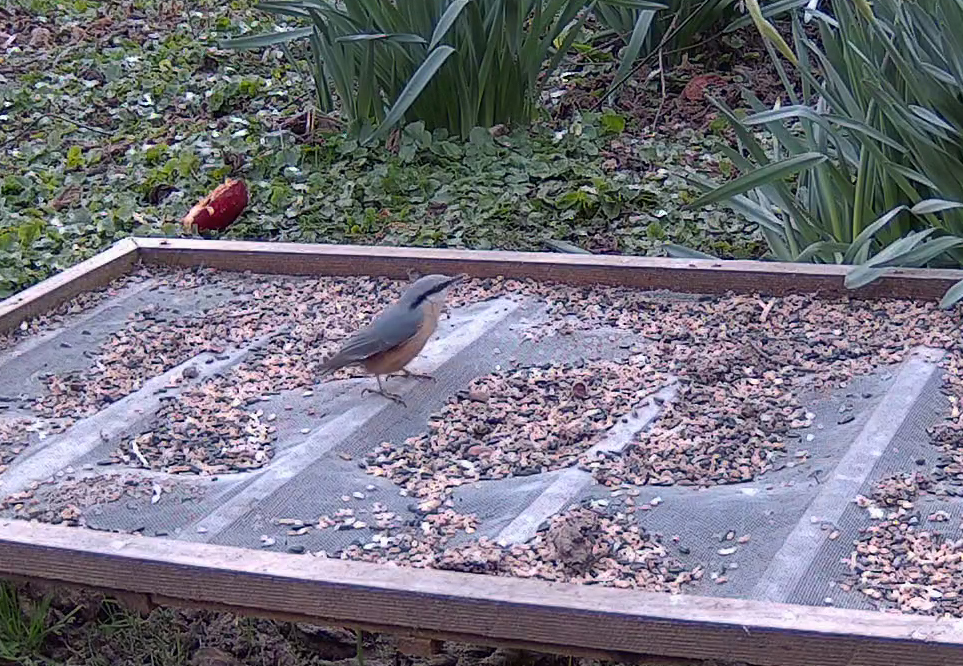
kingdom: Animalia
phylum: Chordata
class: Aves
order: Passeriformes
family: Sittidae
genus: Sitta
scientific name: Sitta europaea
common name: Eurasian nuthatch
